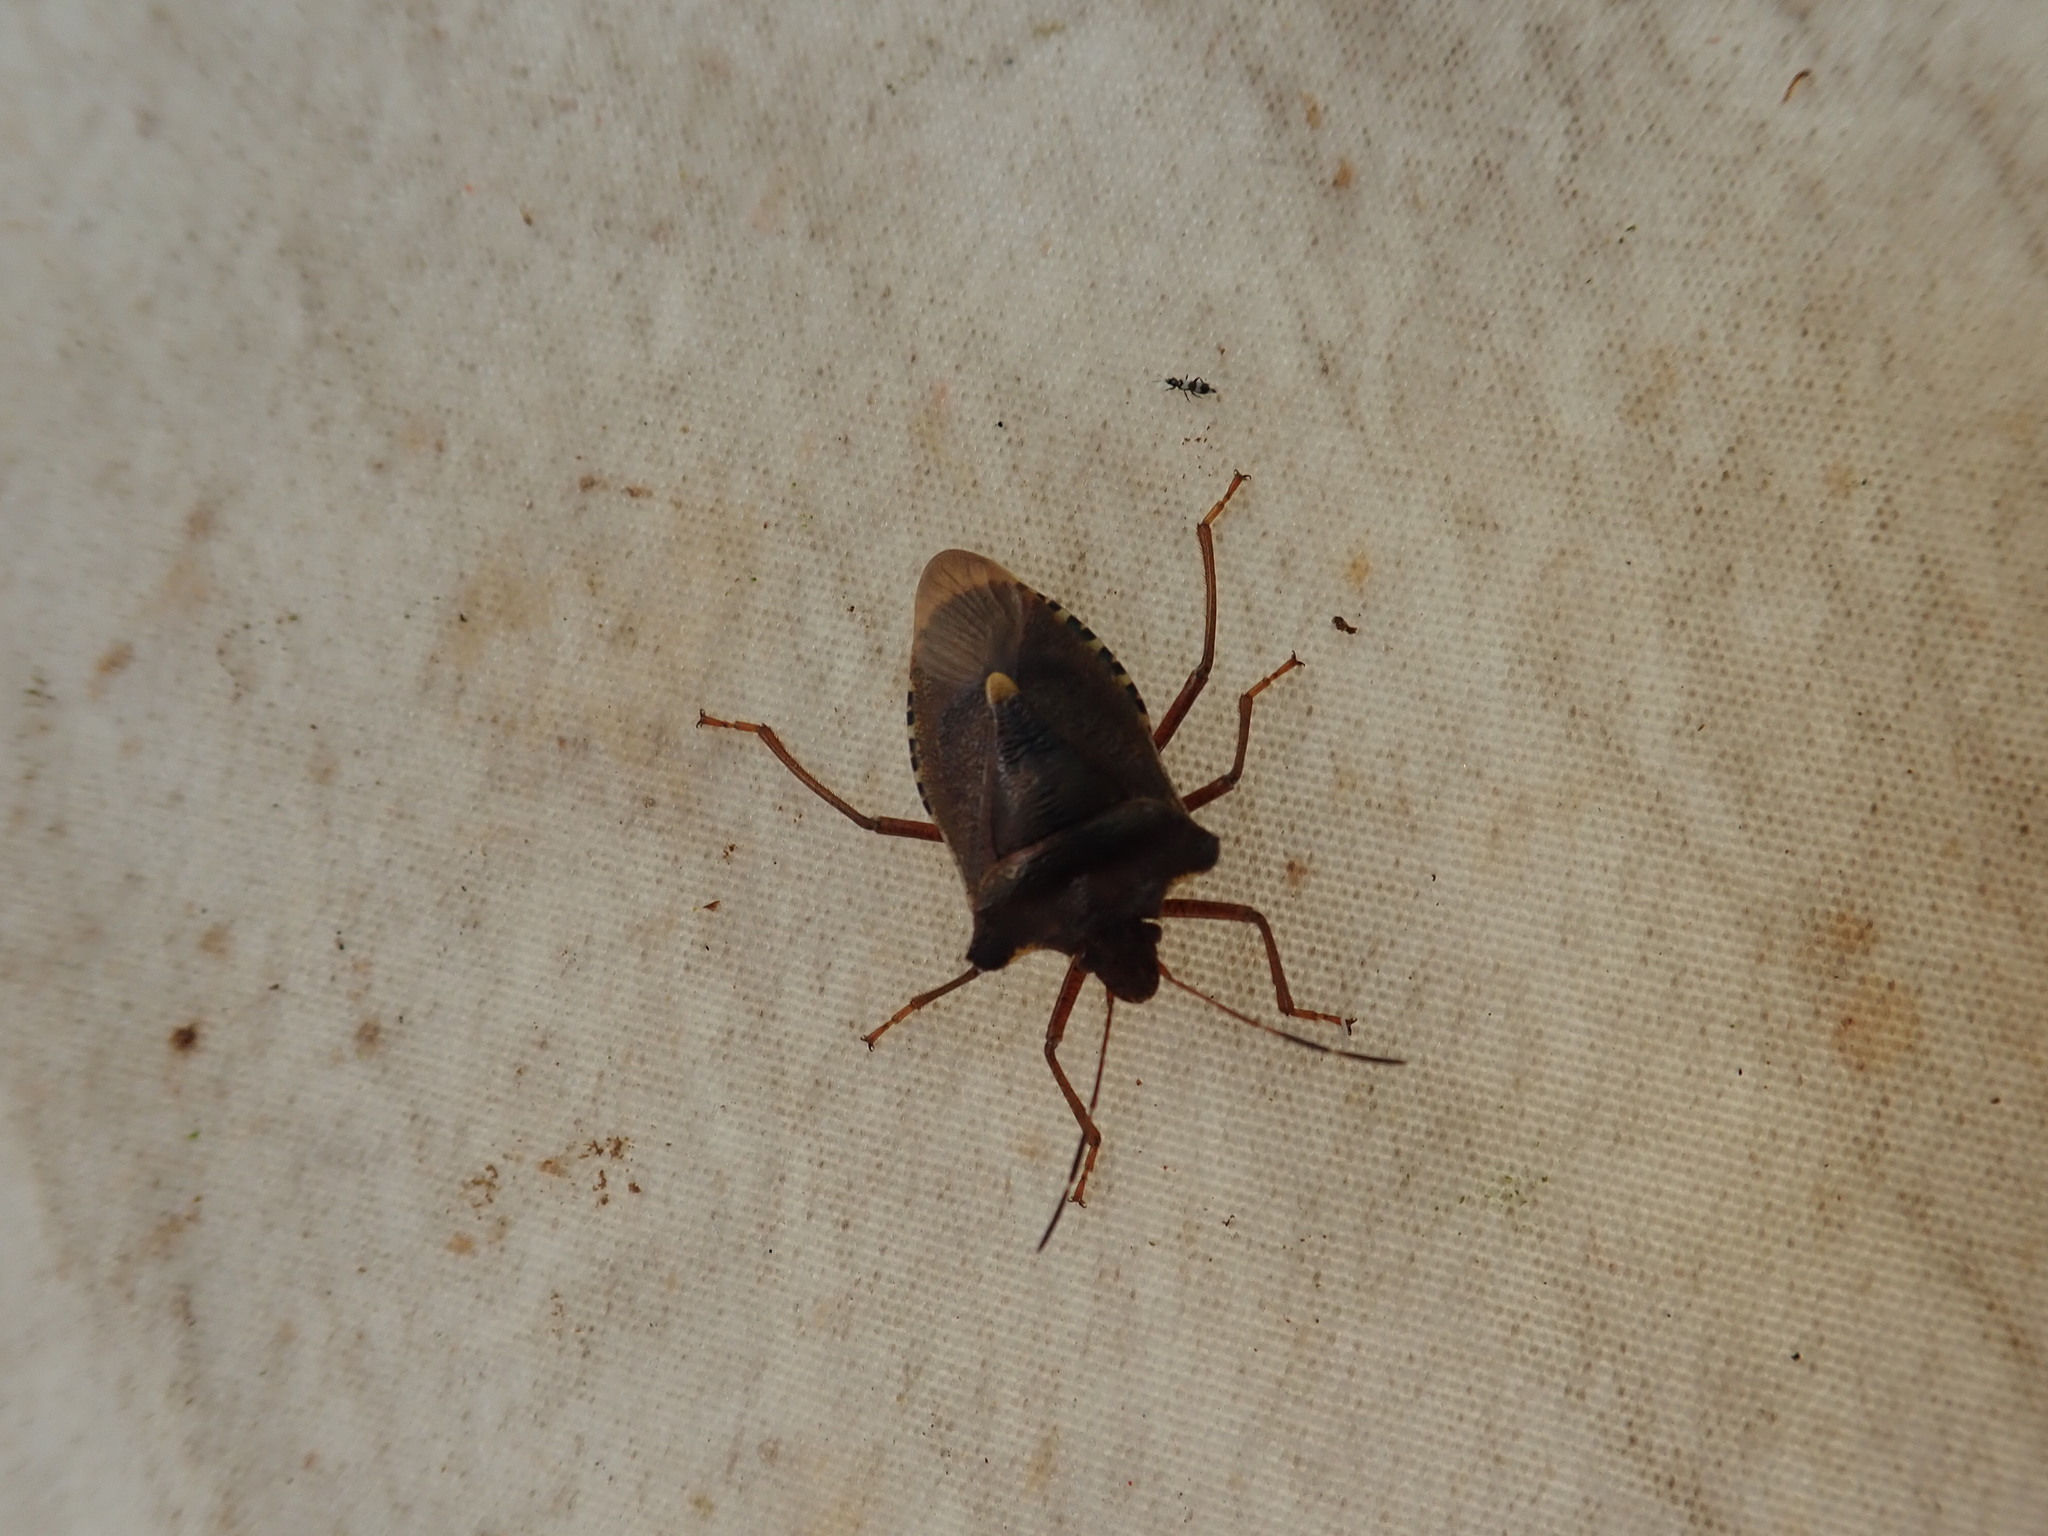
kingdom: Animalia
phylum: Arthropoda
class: Insecta
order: Hemiptera
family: Pentatomidae
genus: Pentatoma
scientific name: Pentatoma rufipes
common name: Forest bug
